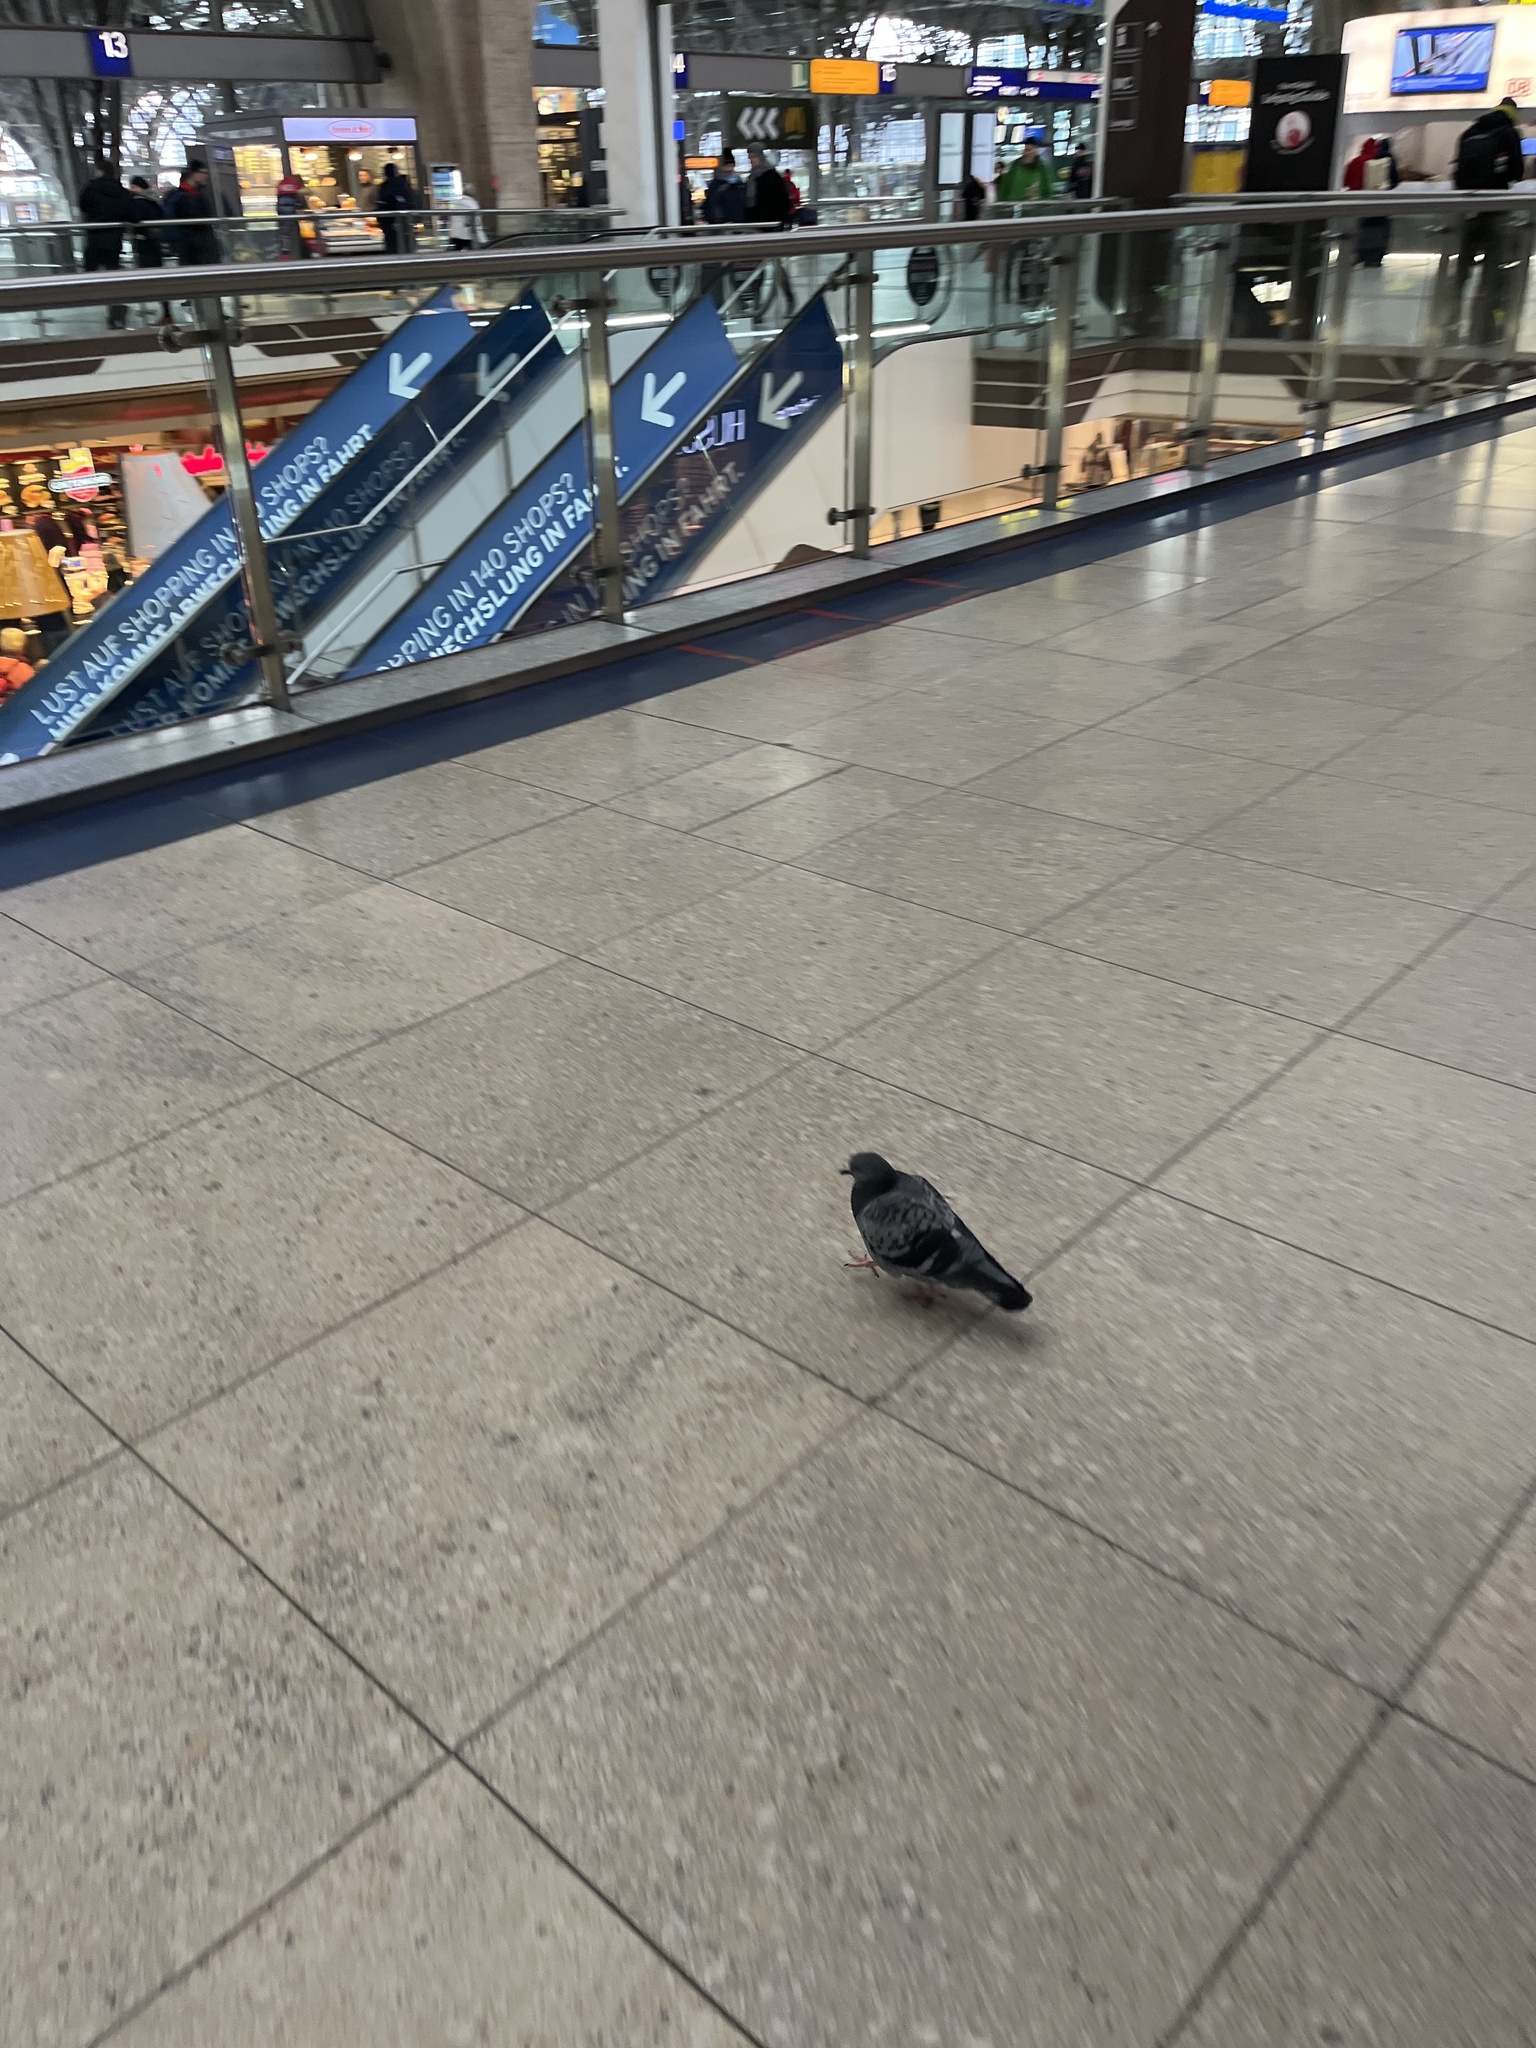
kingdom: Animalia
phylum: Chordata
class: Aves
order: Columbiformes
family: Columbidae
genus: Columba
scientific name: Columba livia
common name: Rock pigeon
